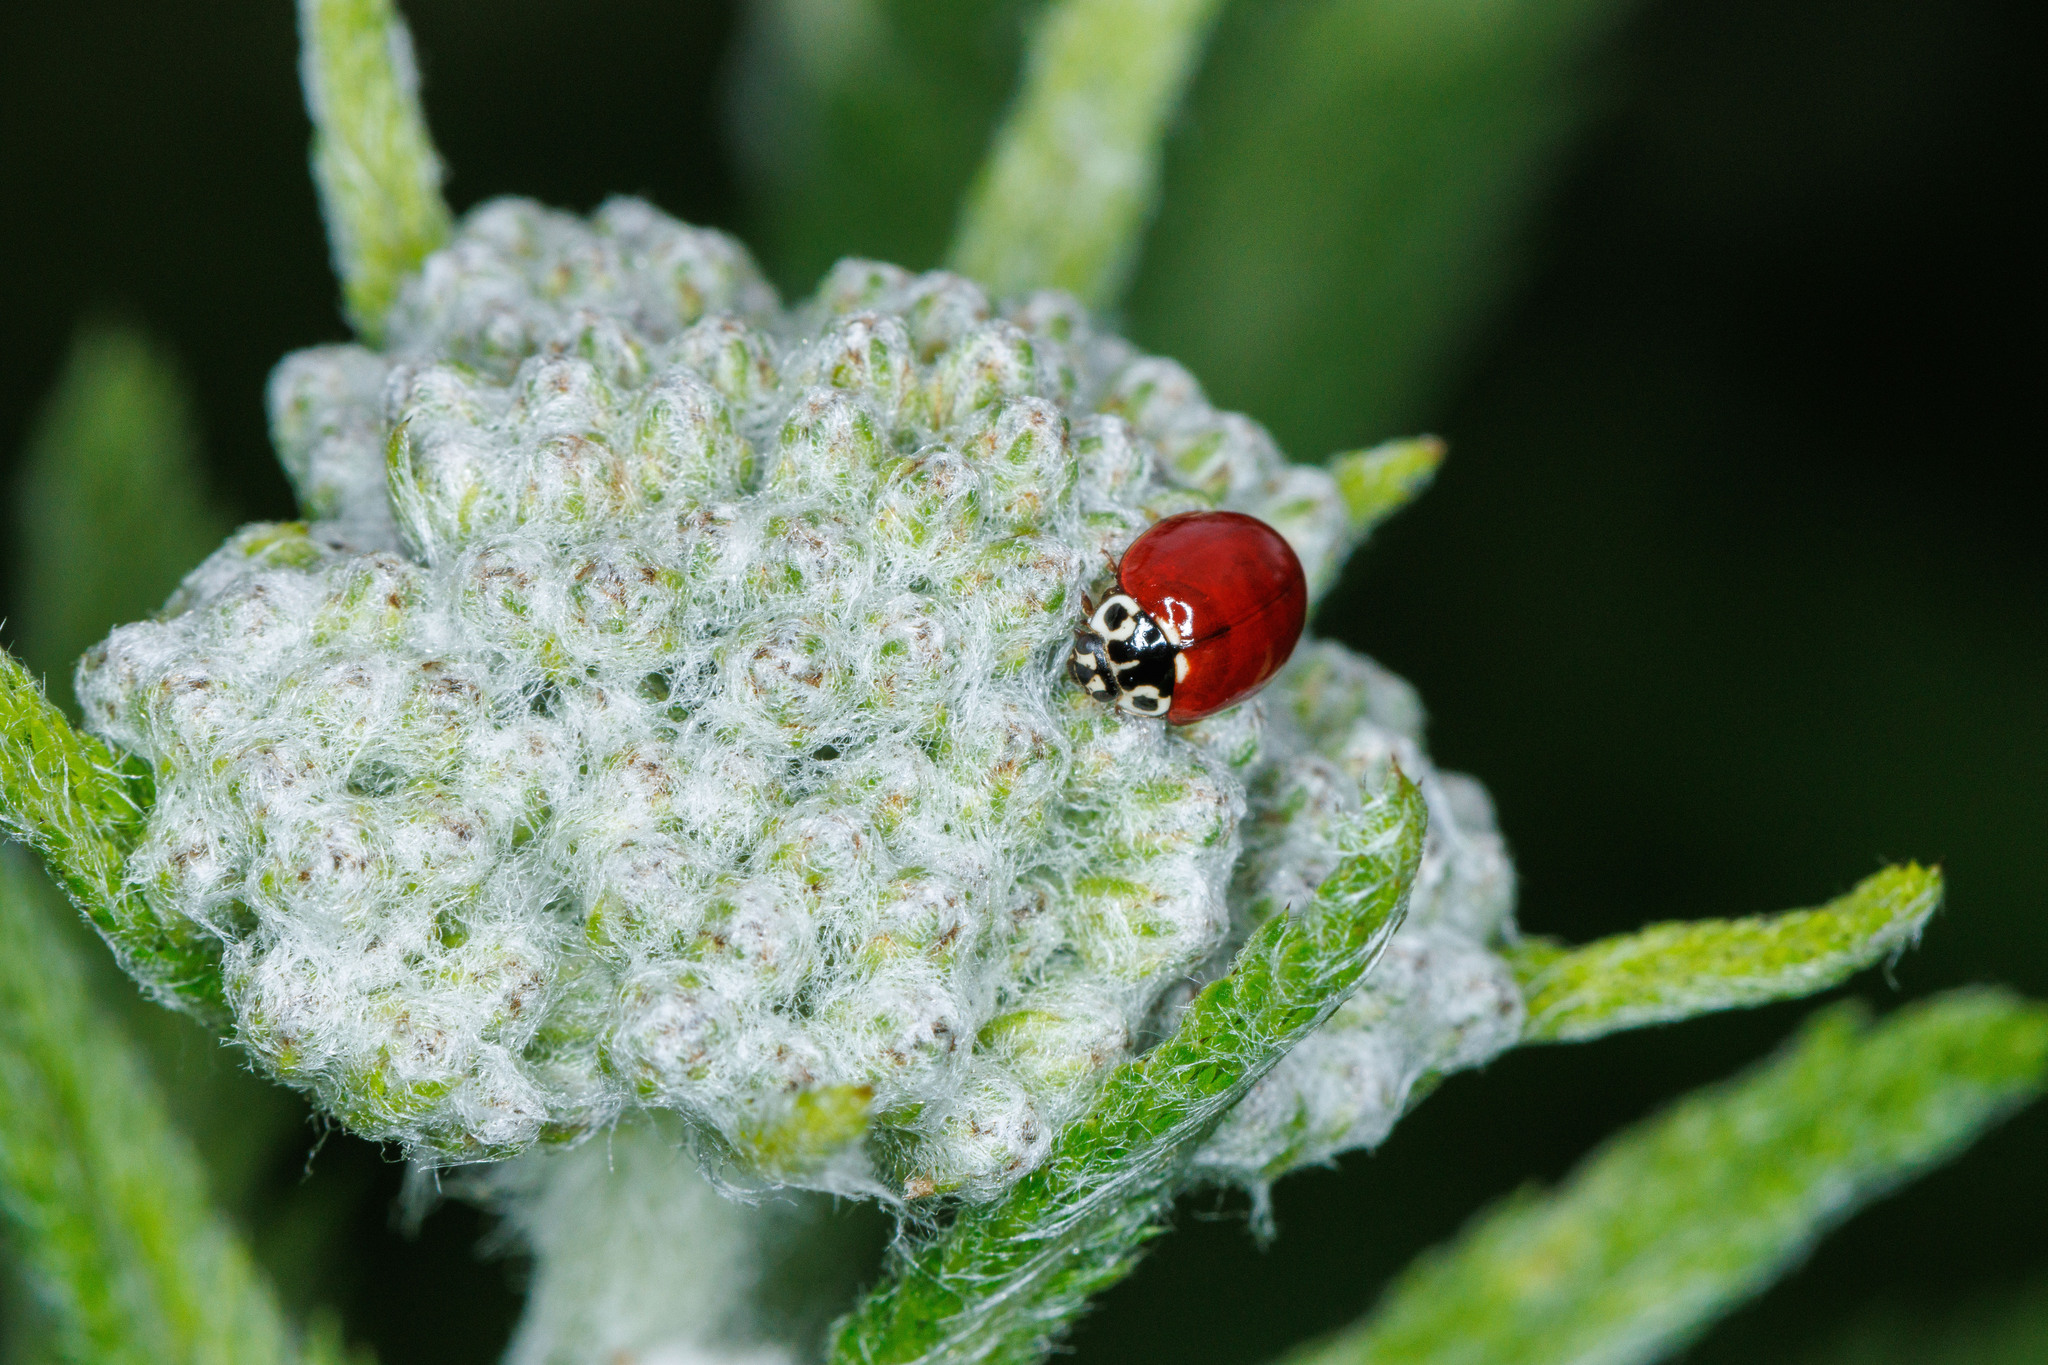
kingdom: Animalia
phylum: Arthropoda
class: Insecta
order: Coleoptera
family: Coccinellidae
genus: Cycloneda
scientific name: Cycloneda polita
